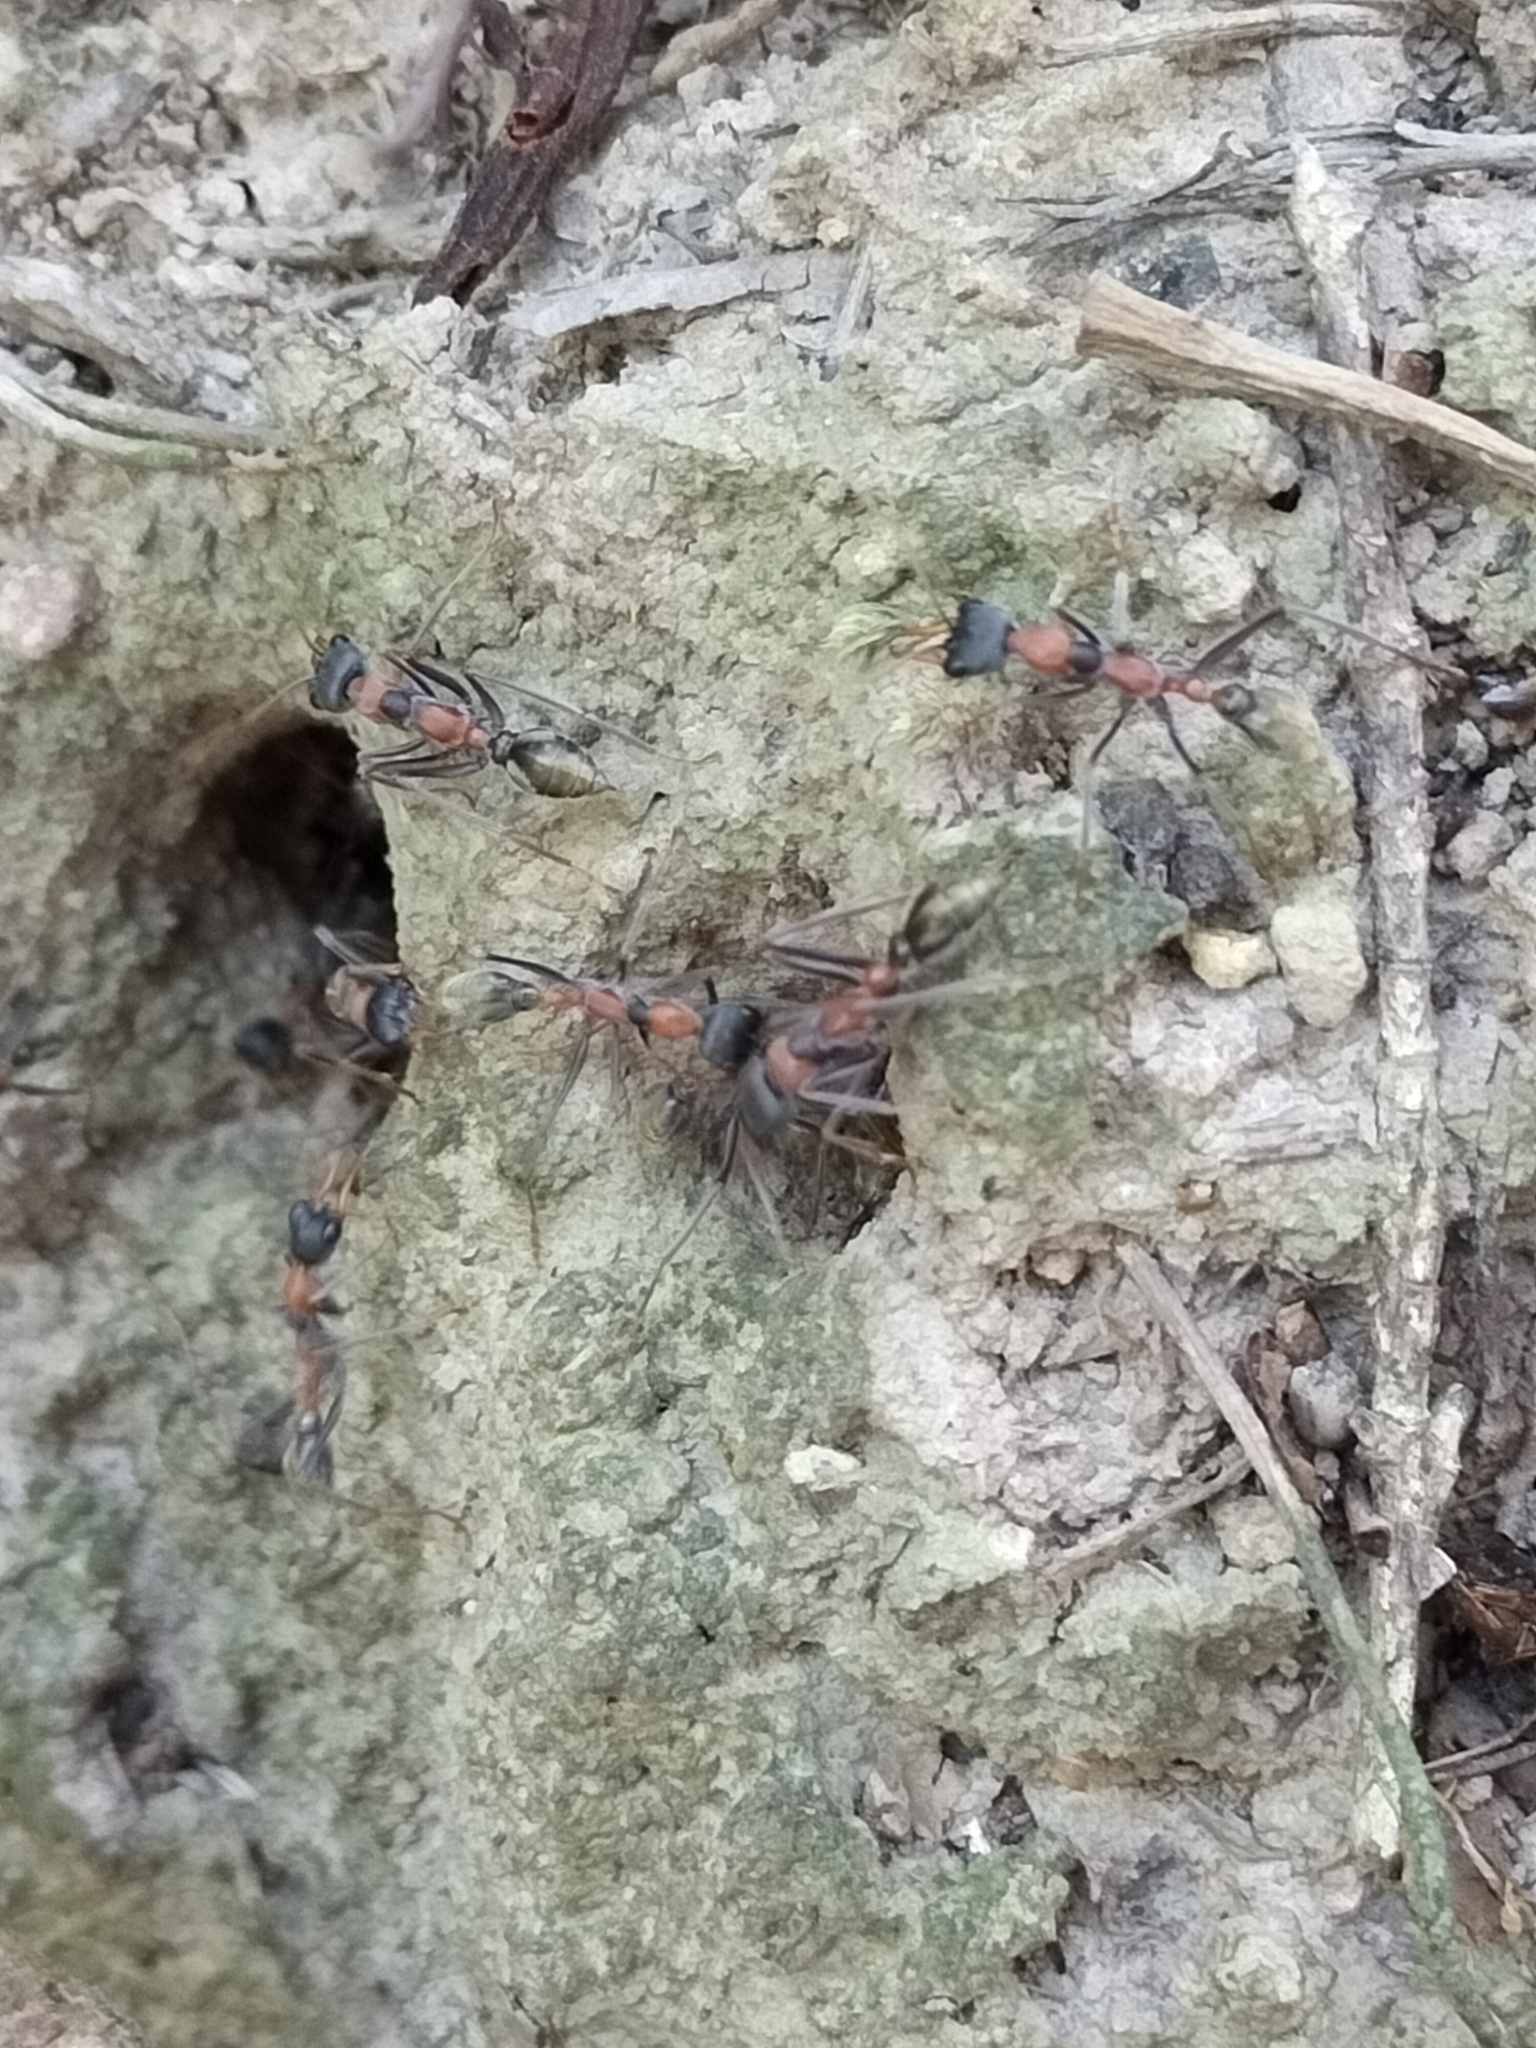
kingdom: Animalia
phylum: Arthropoda
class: Insecta
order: Hymenoptera
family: Formicidae
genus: Myrmecia
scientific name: Myrmecia nigrocincta
